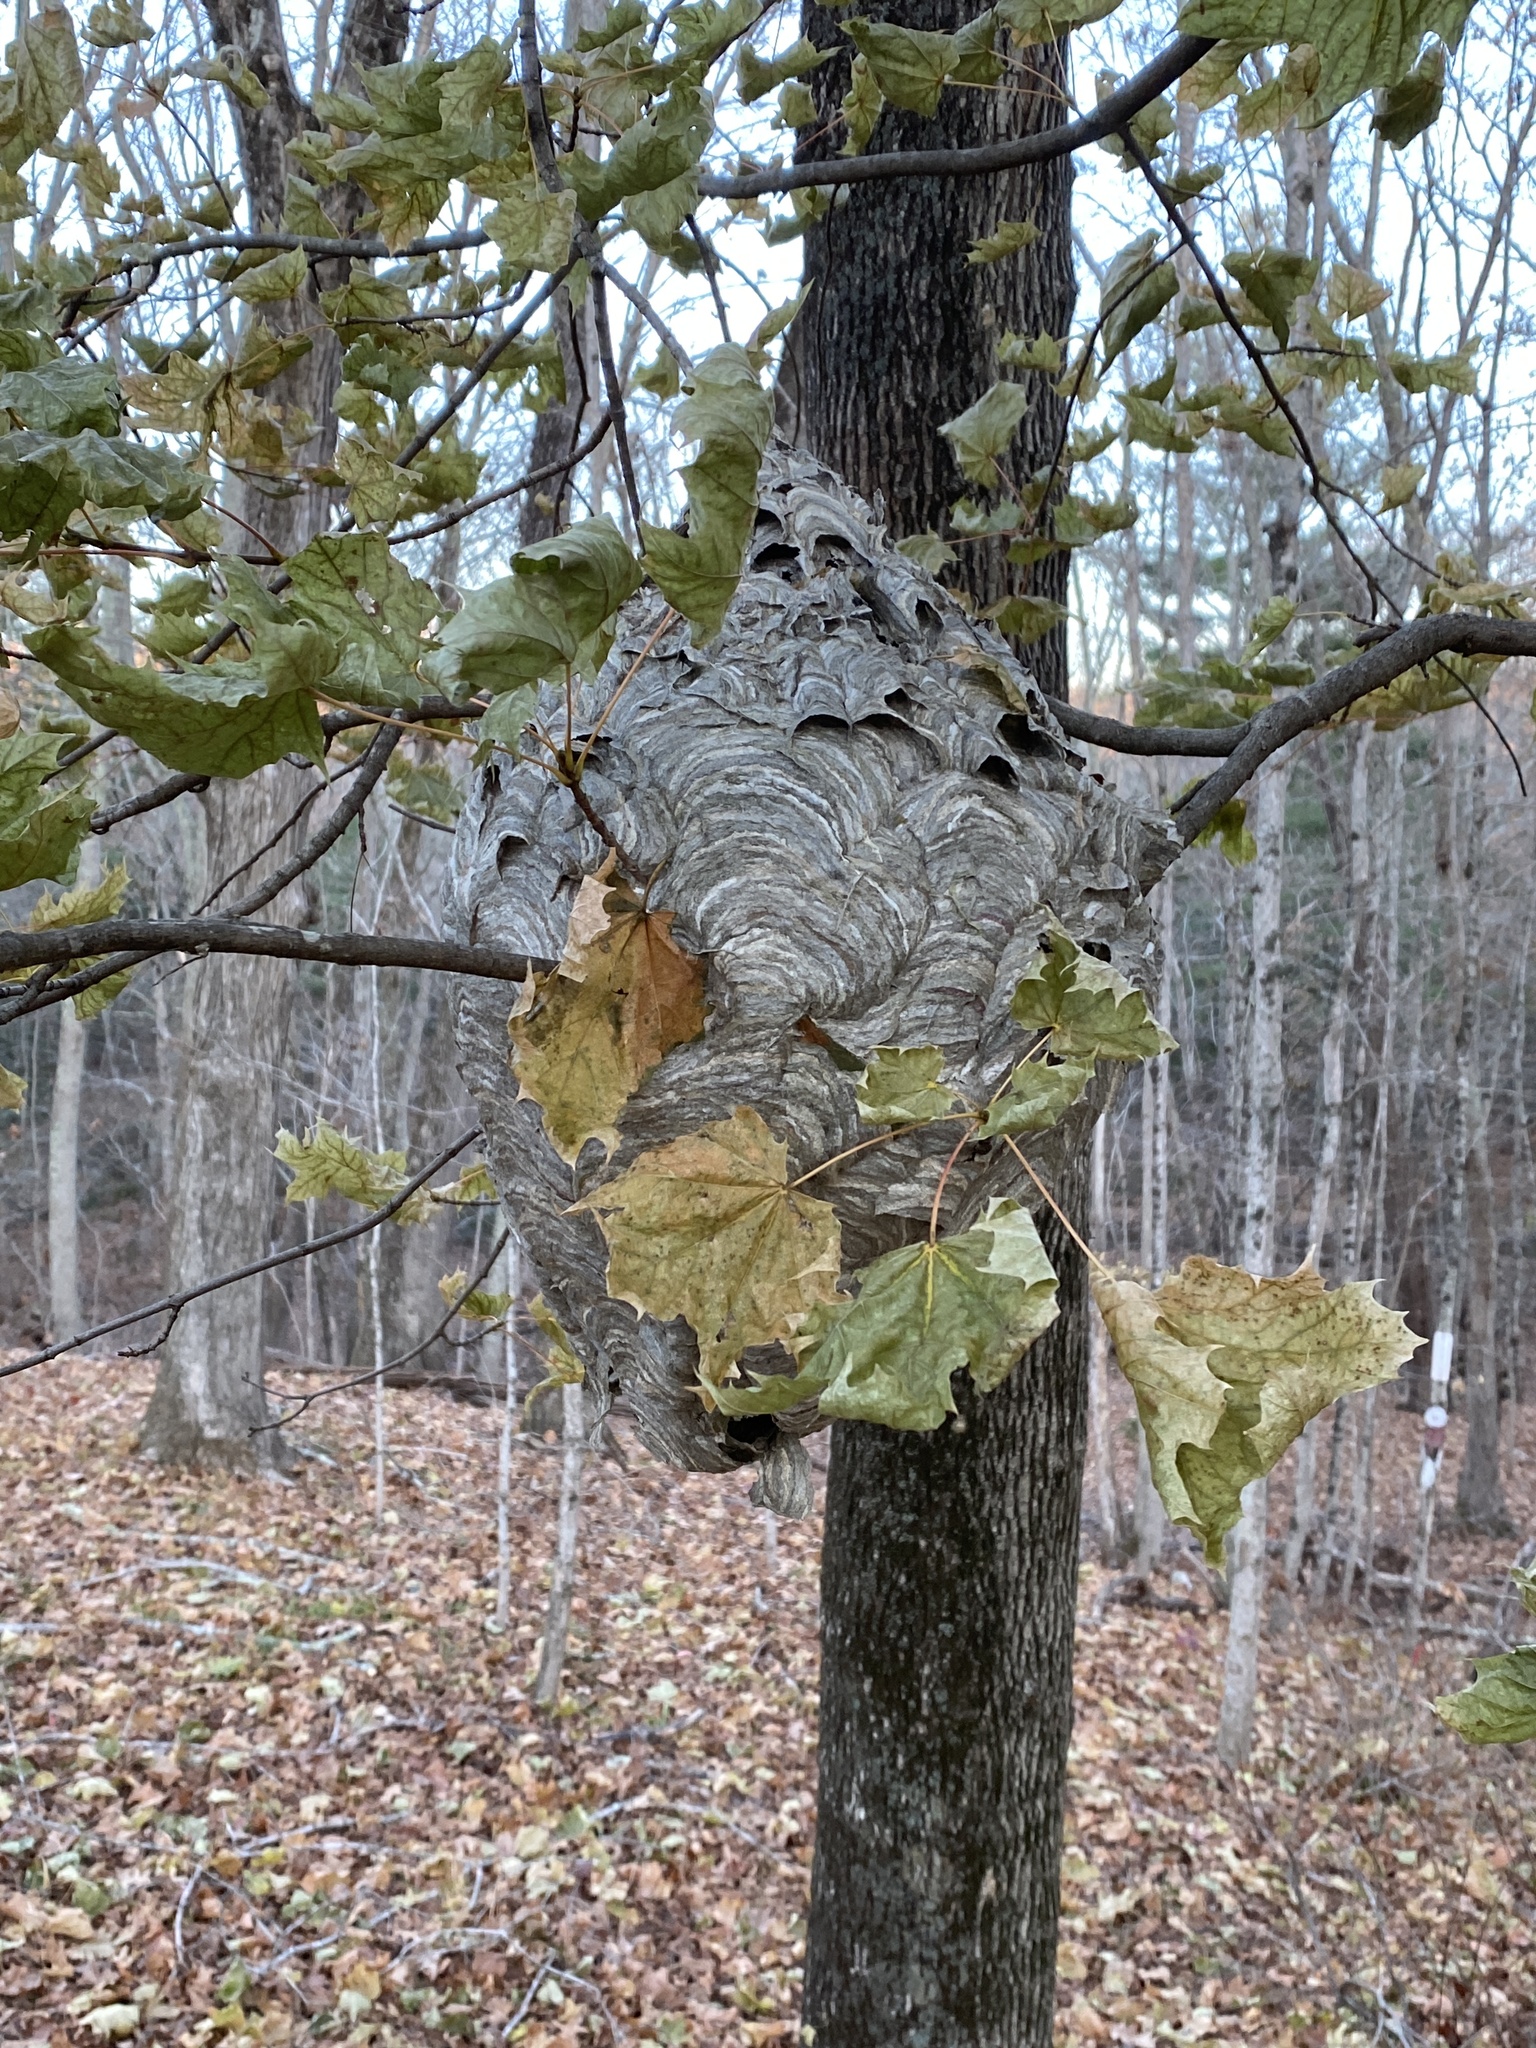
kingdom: Animalia
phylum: Arthropoda
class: Insecta
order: Hymenoptera
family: Vespidae
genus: Dolichovespula
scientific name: Dolichovespula maculata
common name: Bald-faced hornet
